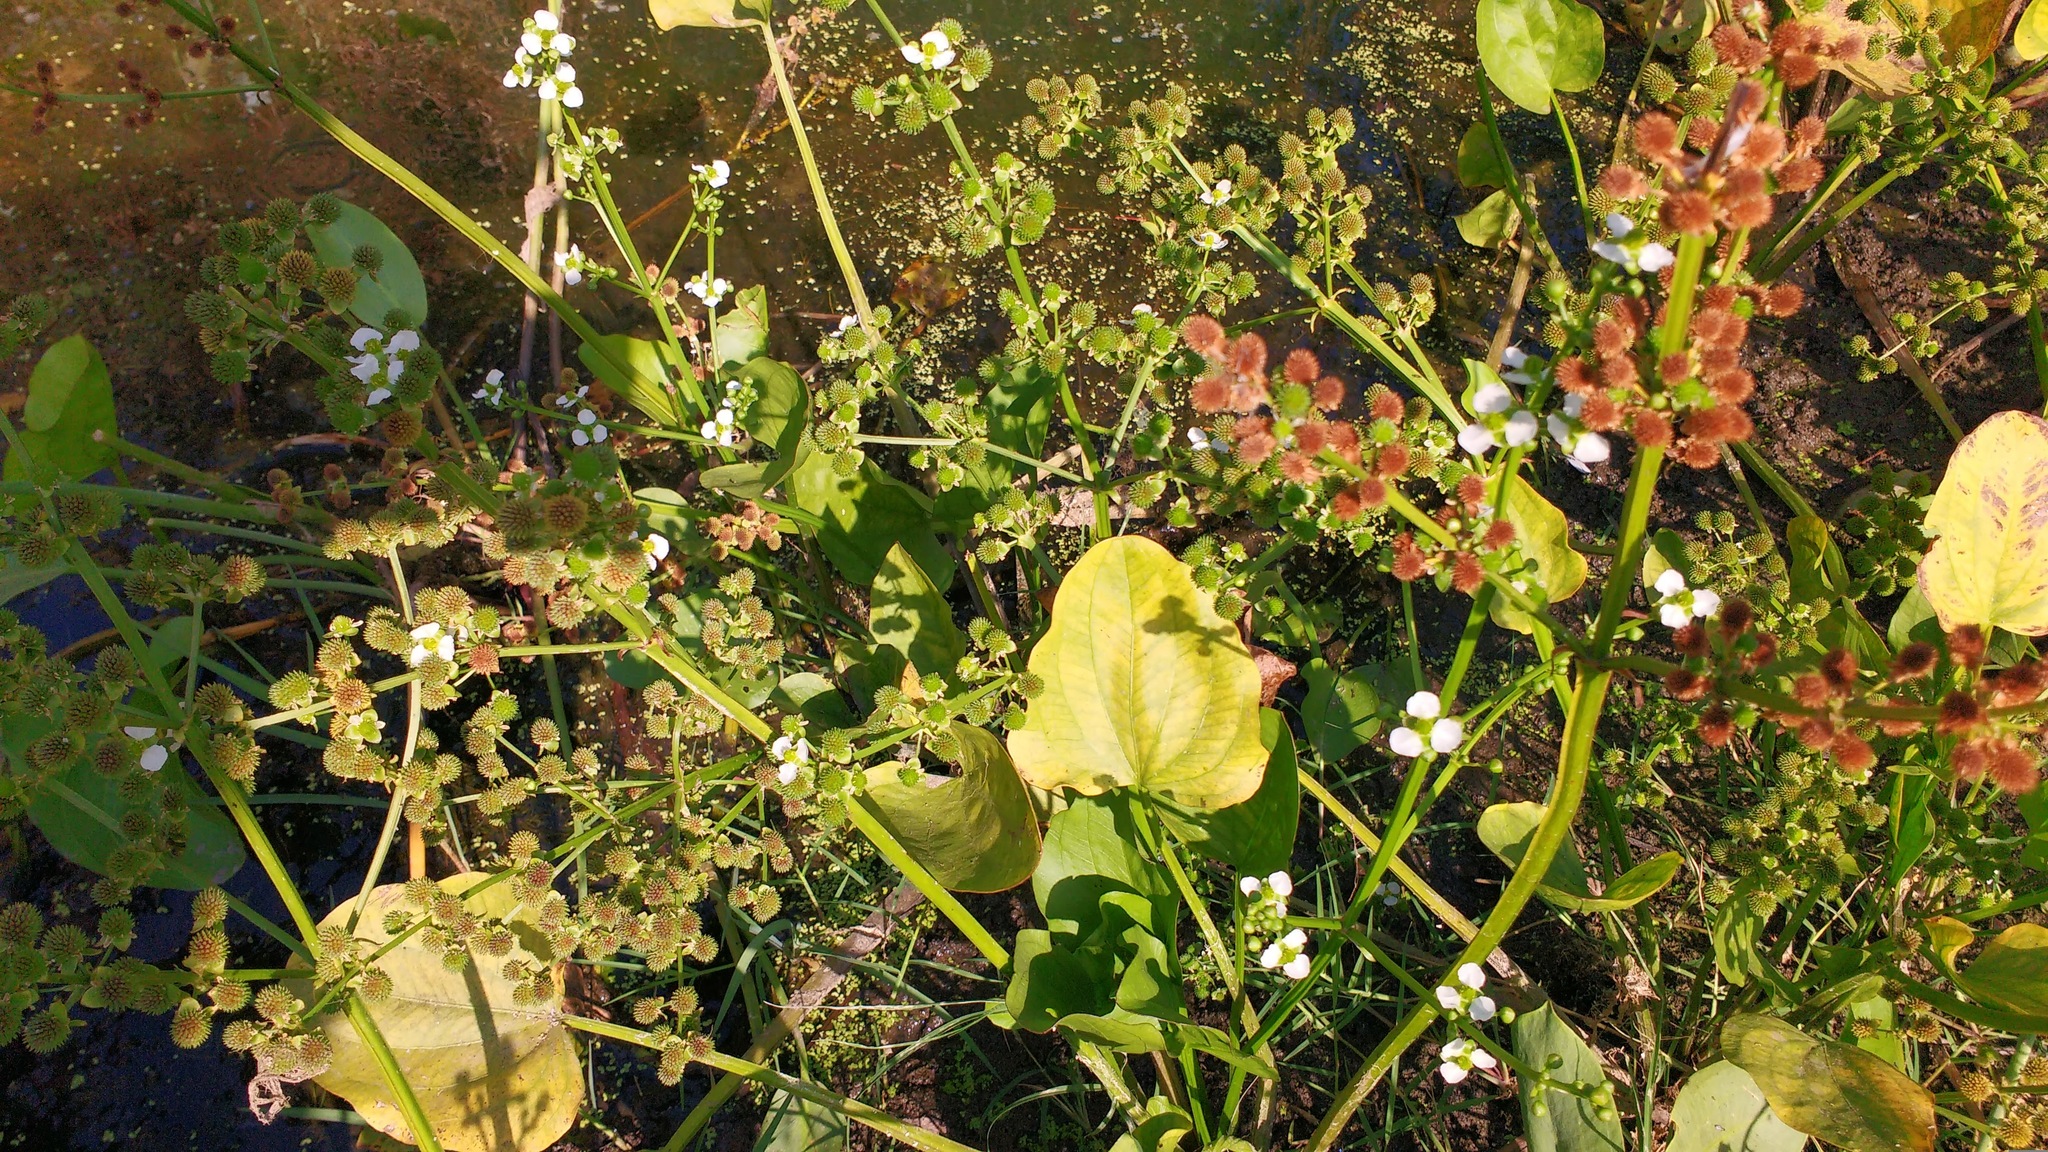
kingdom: Plantae
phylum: Tracheophyta
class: Liliopsida
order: Alismatales
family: Alismataceae
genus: Echinodorus
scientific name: Echinodorus berteroi
